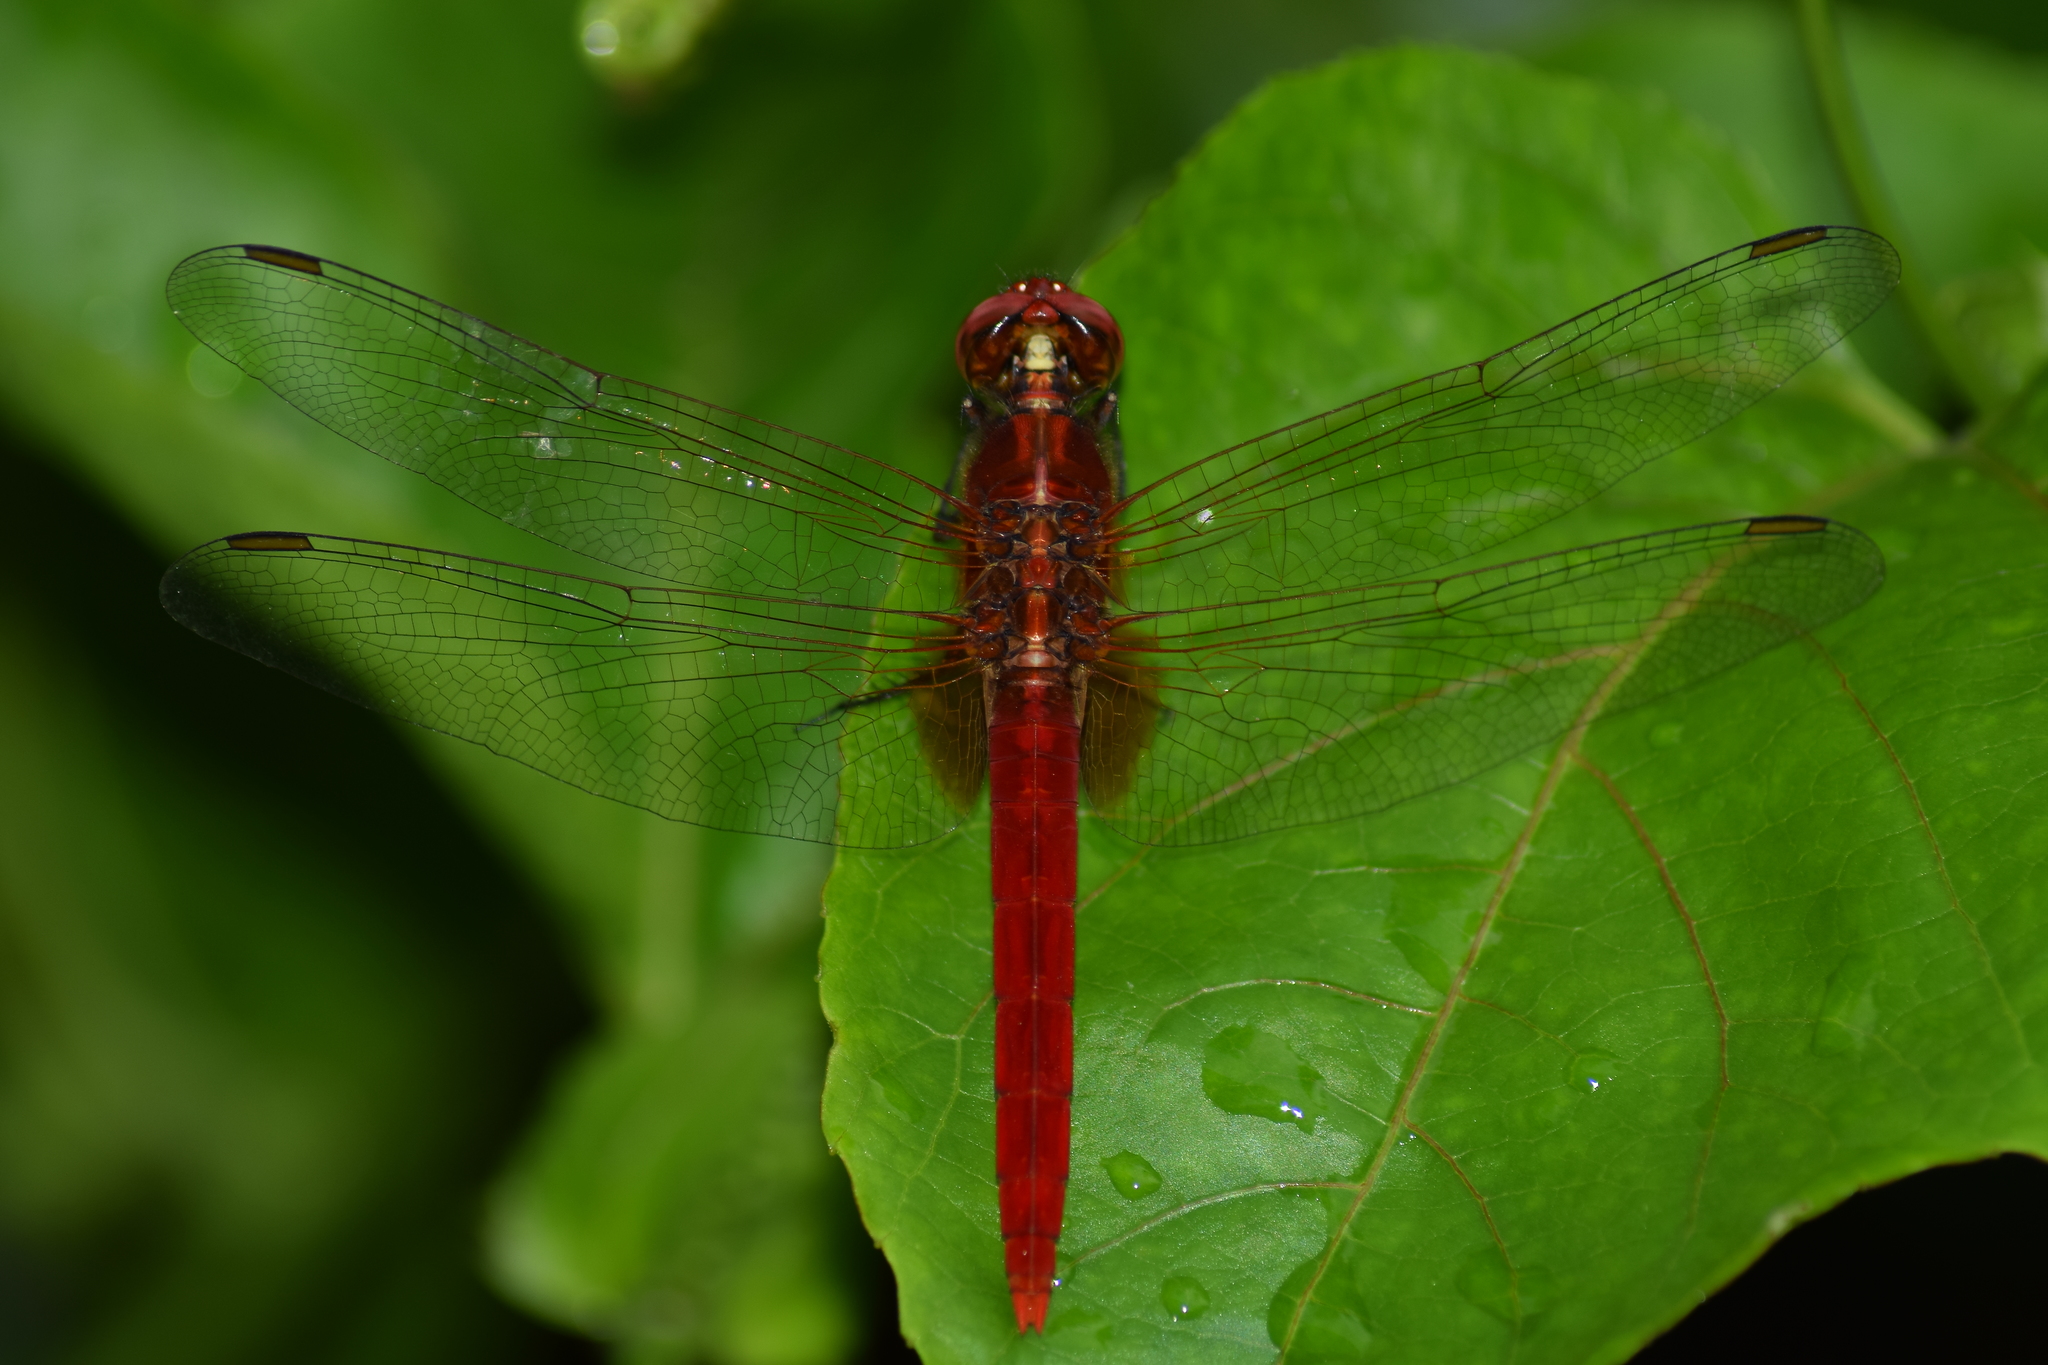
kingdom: Animalia
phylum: Arthropoda
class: Insecta
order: Odonata
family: Libellulidae
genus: Rhodothemis
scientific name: Rhodothemis rufa
